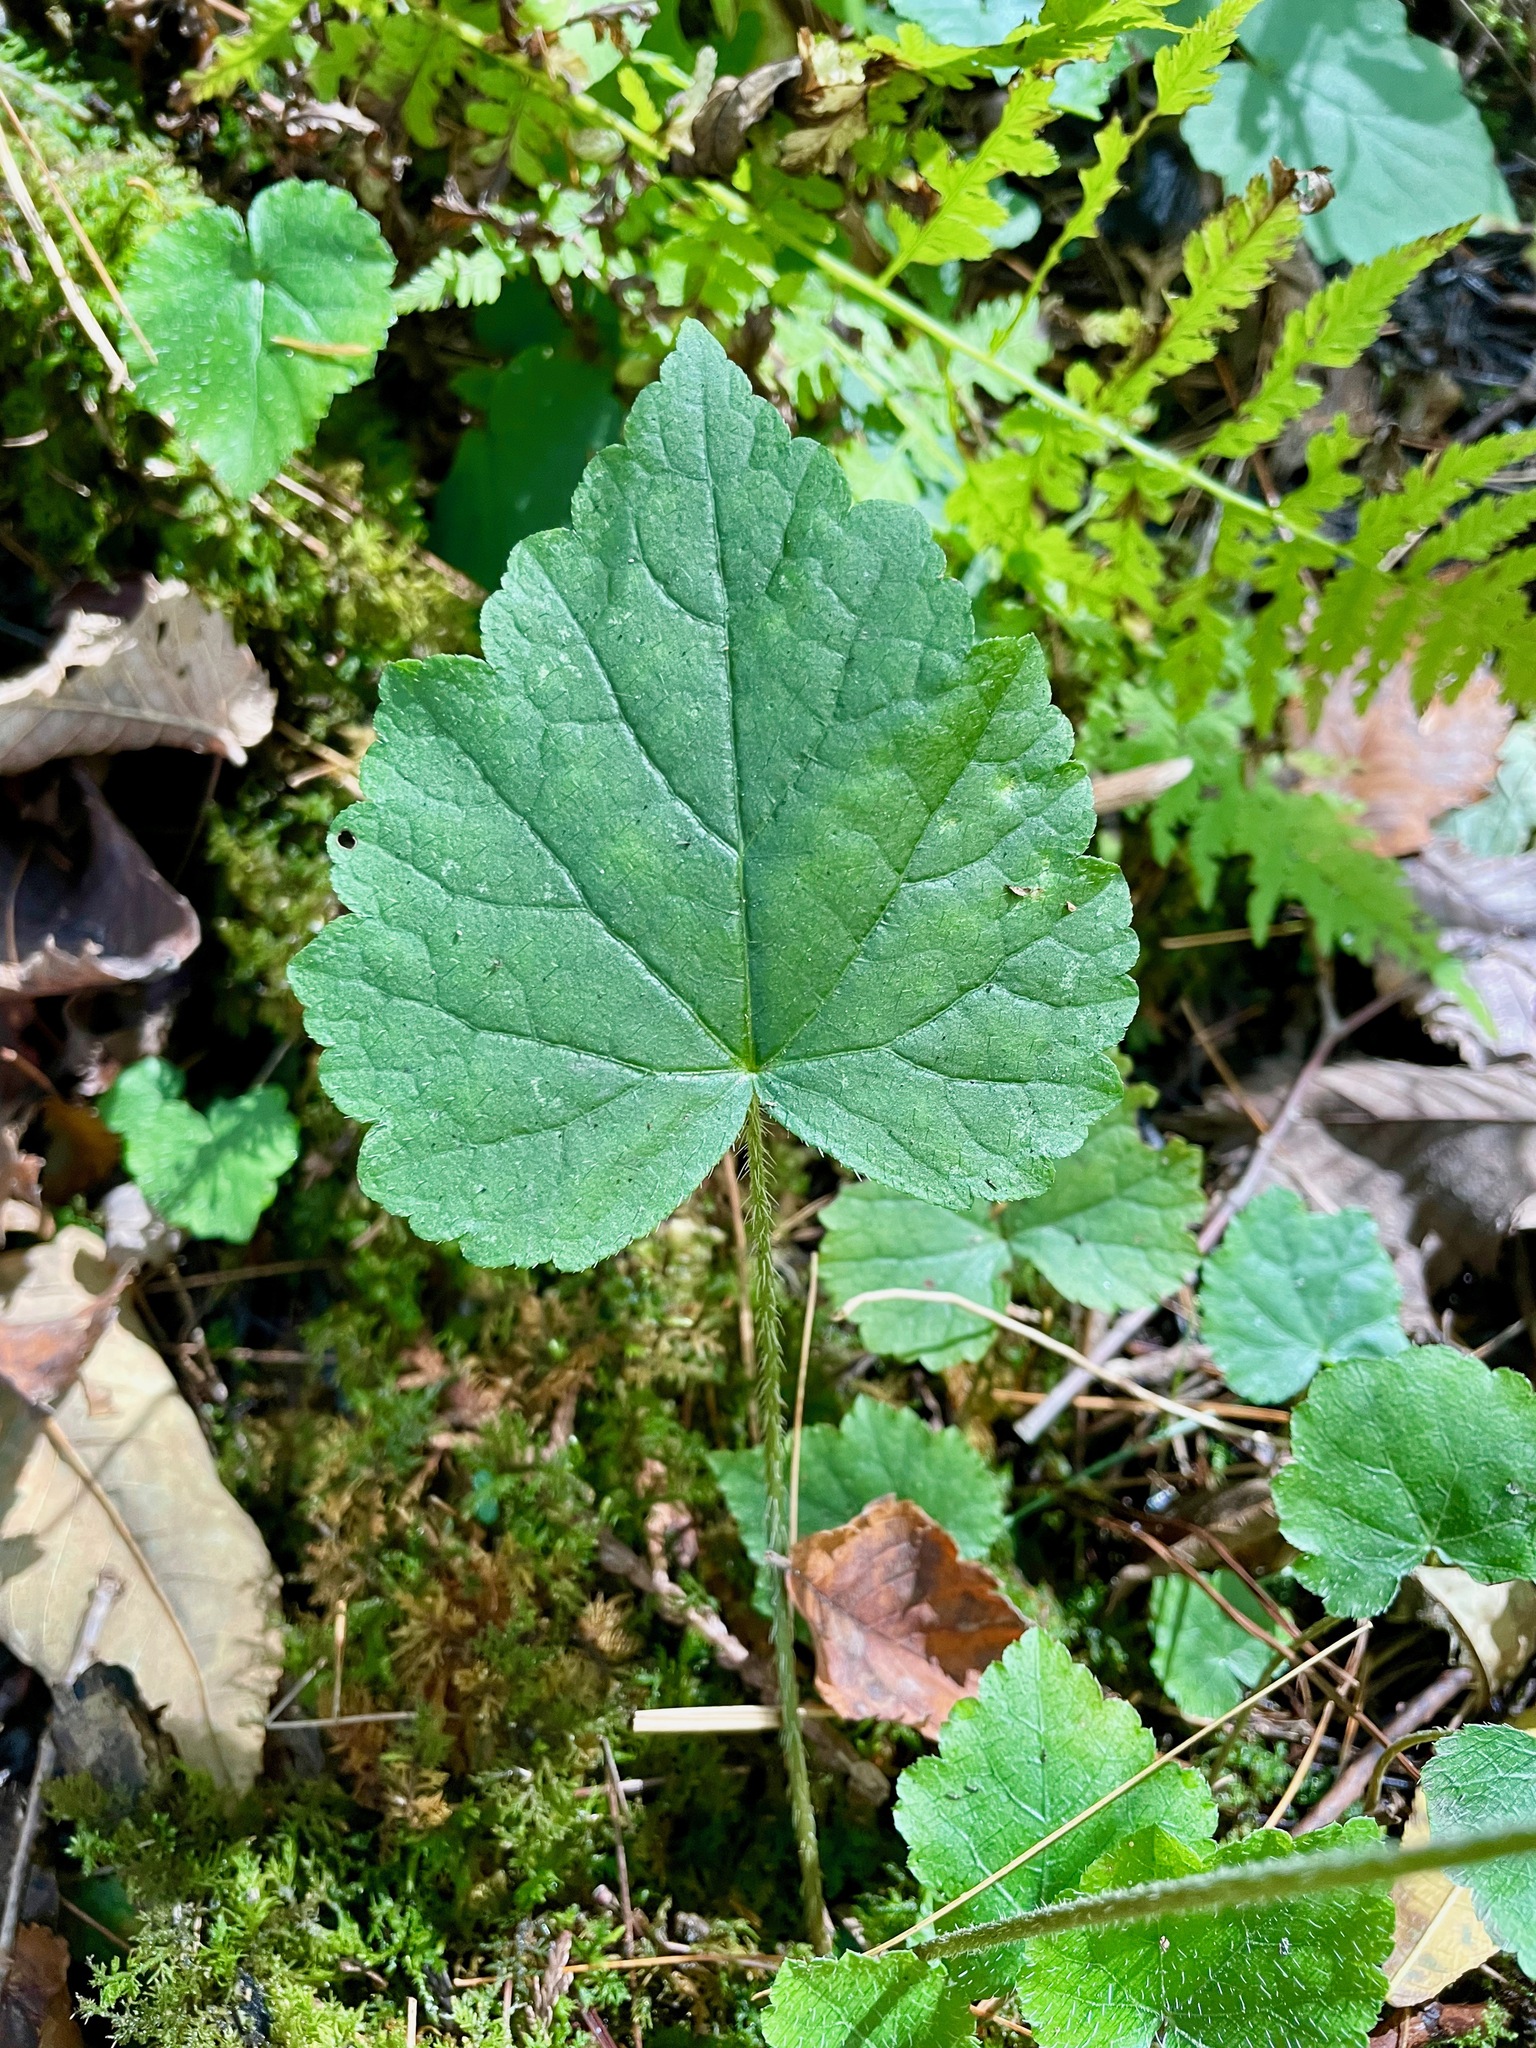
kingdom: Plantae
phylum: Tracheophyta
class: Magnoliopsida
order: Saxifragales
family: Saxifragaceae
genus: Mitella
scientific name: Mitella diphylla
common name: Coolwort
